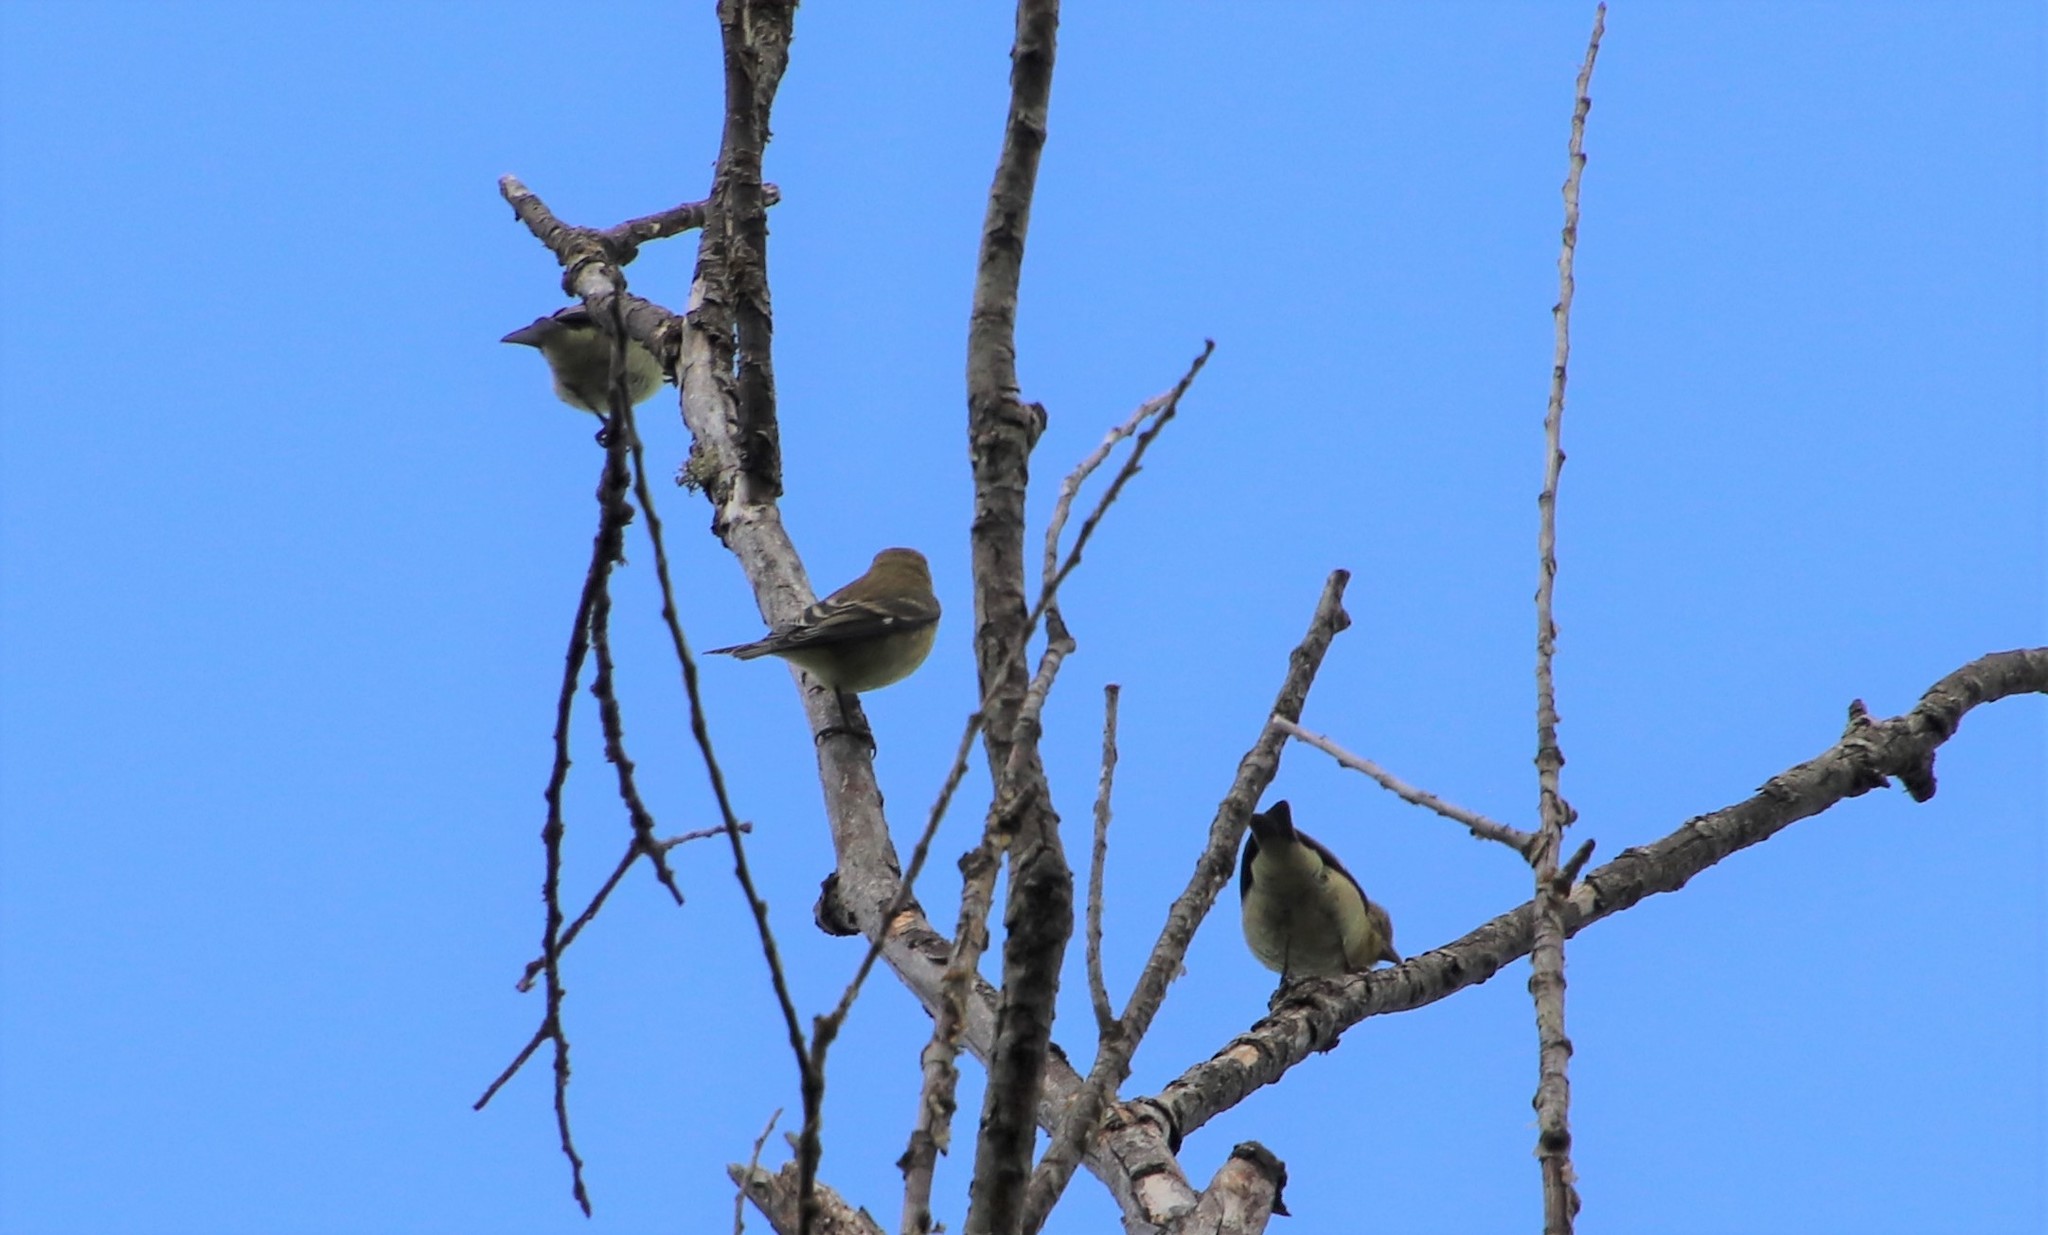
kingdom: Animalia
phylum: Chordata
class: Aves
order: Passeriformes
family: Fringillidae
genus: Spinus
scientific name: Spinus psaltria
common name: Lesser goldfinch
